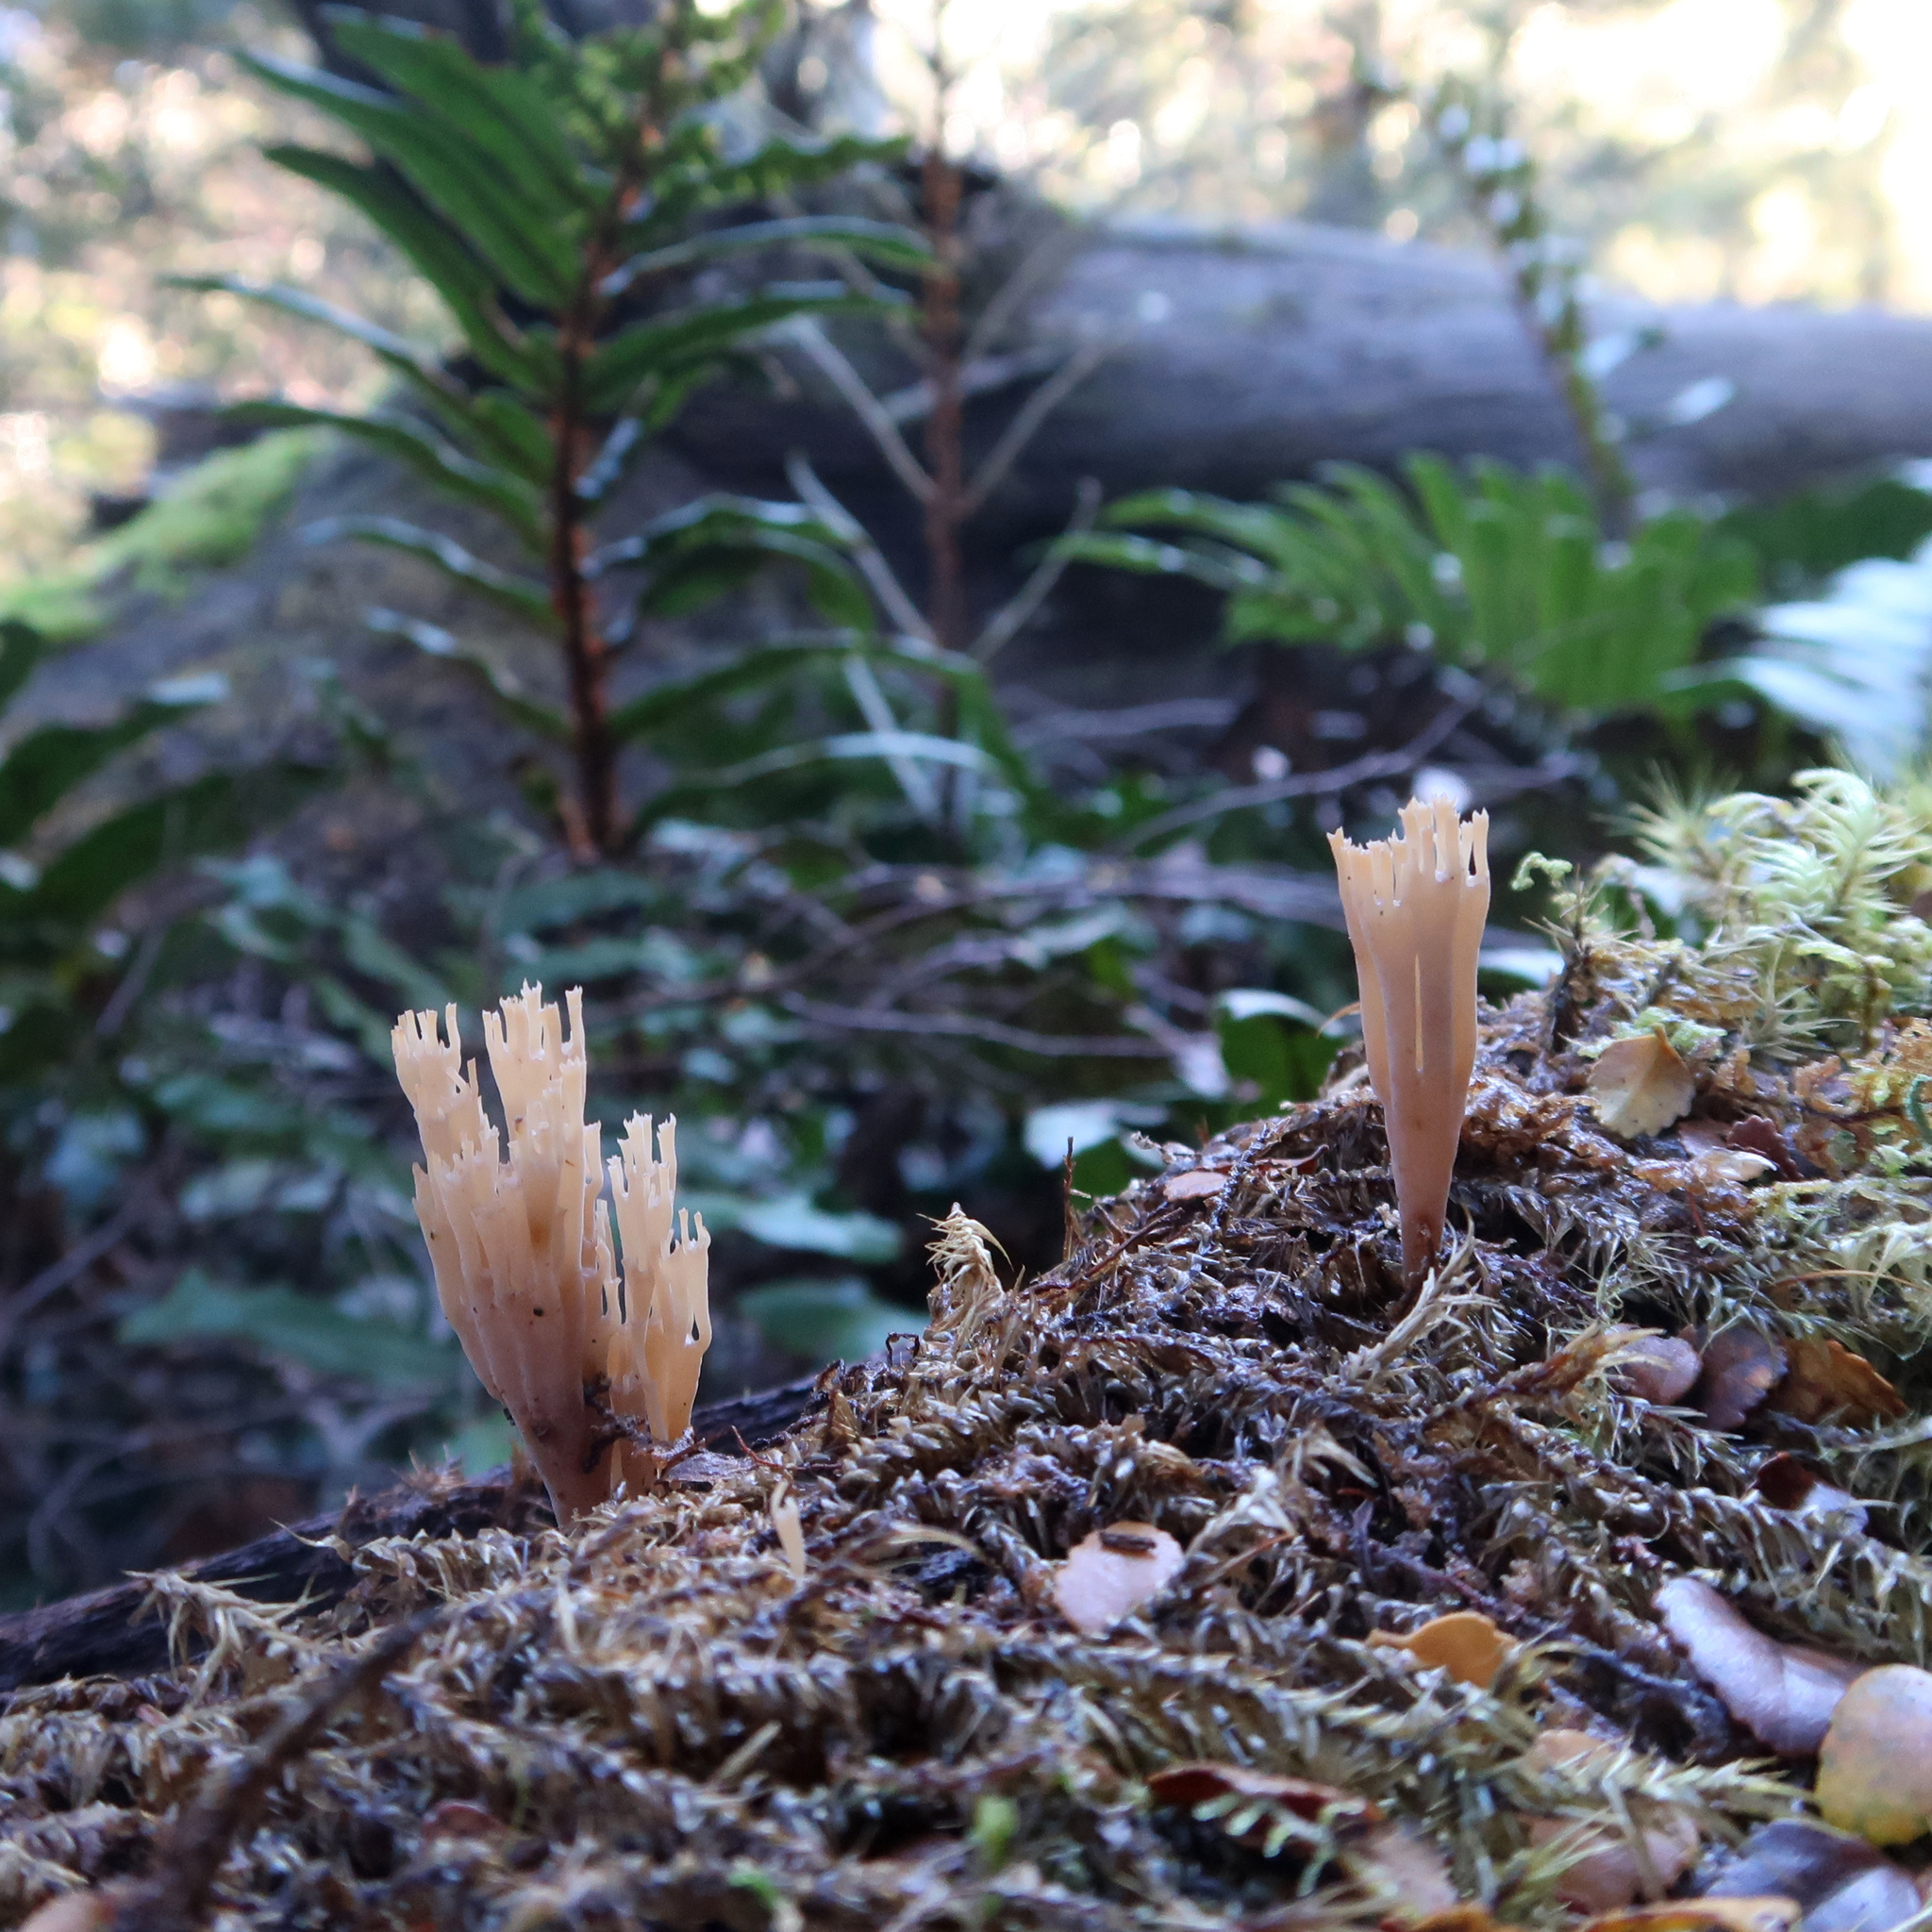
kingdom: Fungi
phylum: Basidiomycota
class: Agaricomycetes
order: Russulales
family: Auriscalpiaceae
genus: Artomyces
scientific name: Artomyces
